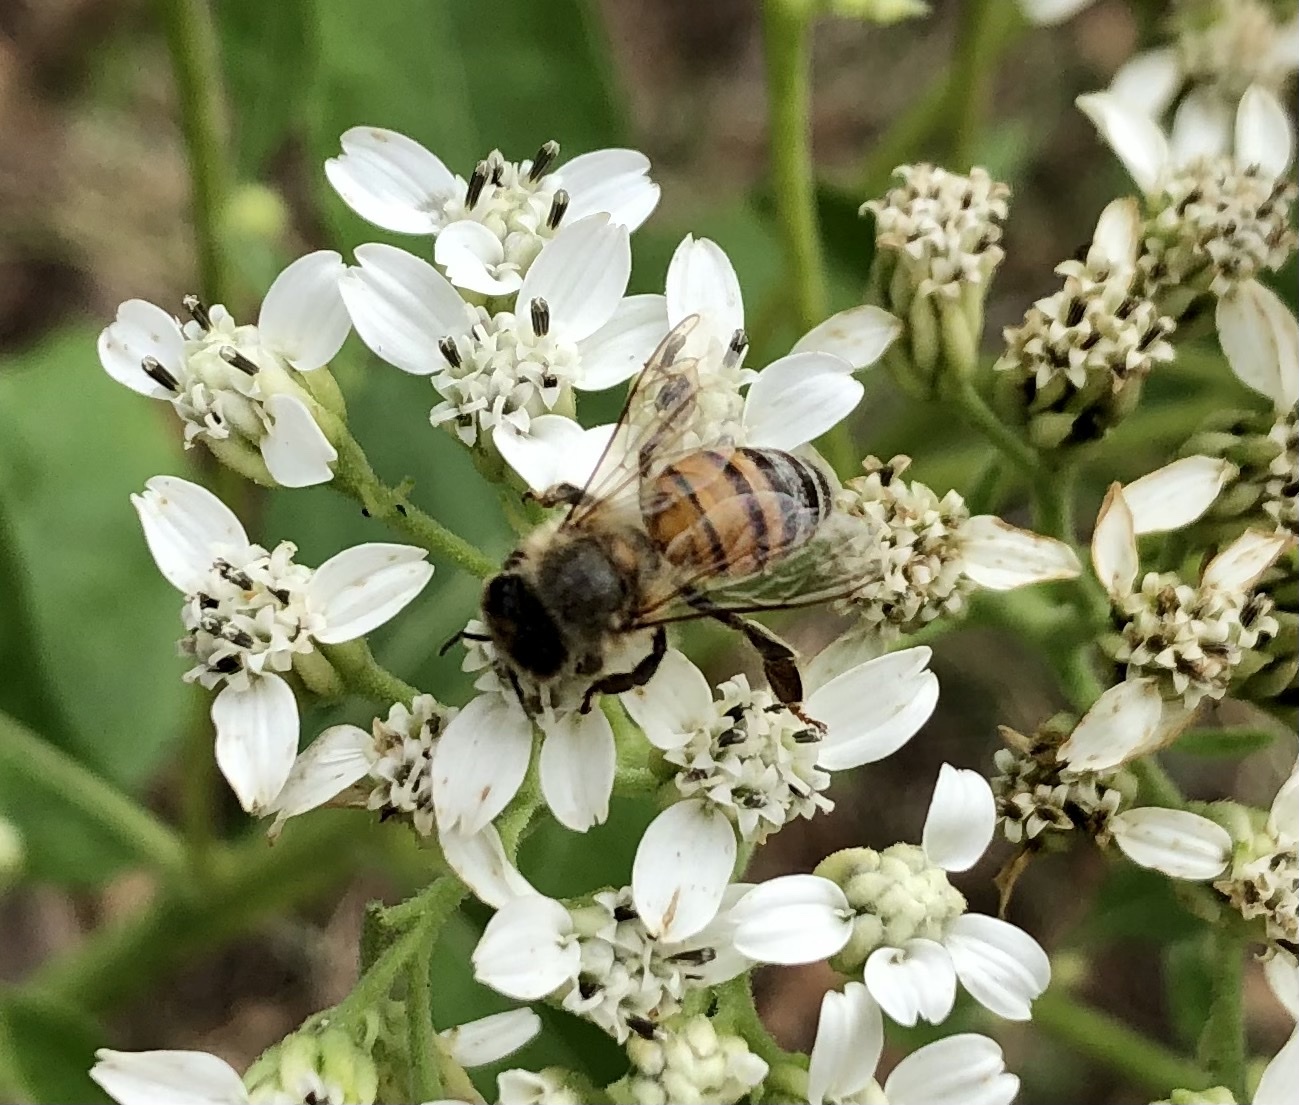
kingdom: Animalia
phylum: Arthropoda
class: Insecta
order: Hymenoptera
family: Apidae
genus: Apis
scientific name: Apis mellifera
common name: Honey bee
